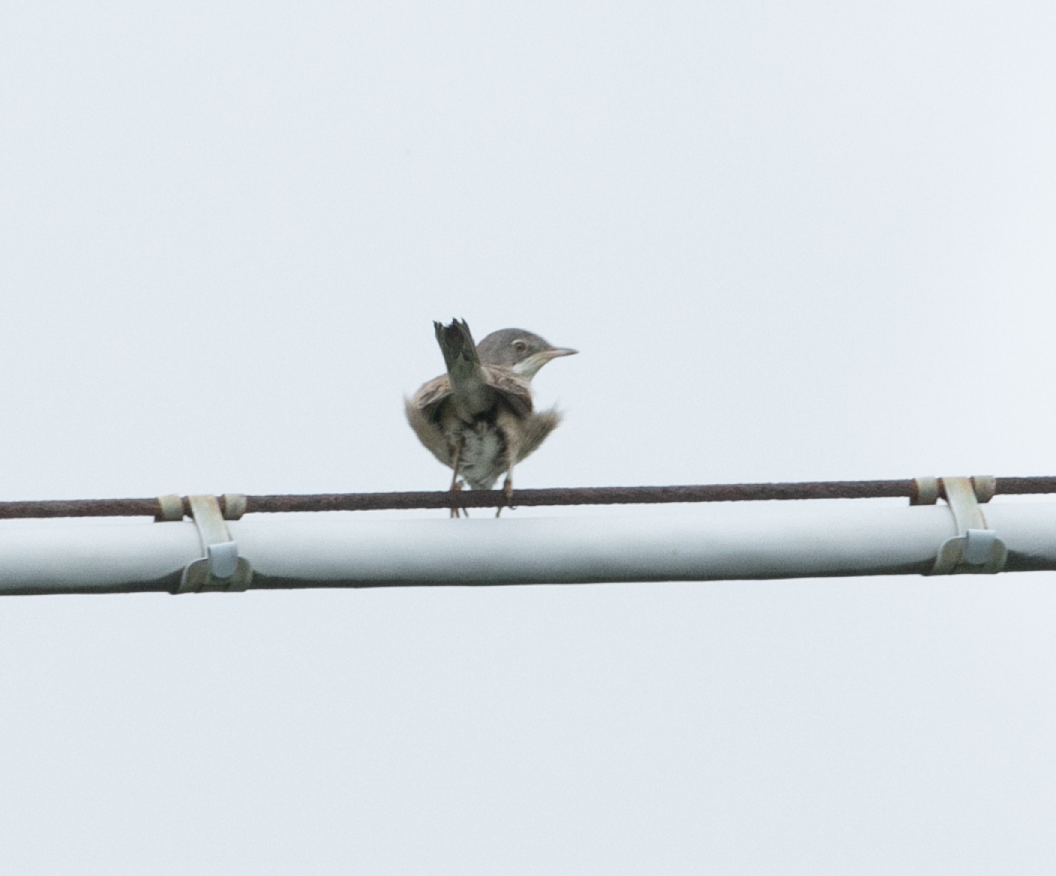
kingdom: Animalia
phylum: Chordata
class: Aves
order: Passeriformes
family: Sylviidae
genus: Sylvia
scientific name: Sylvia communis
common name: Common whitethroat
